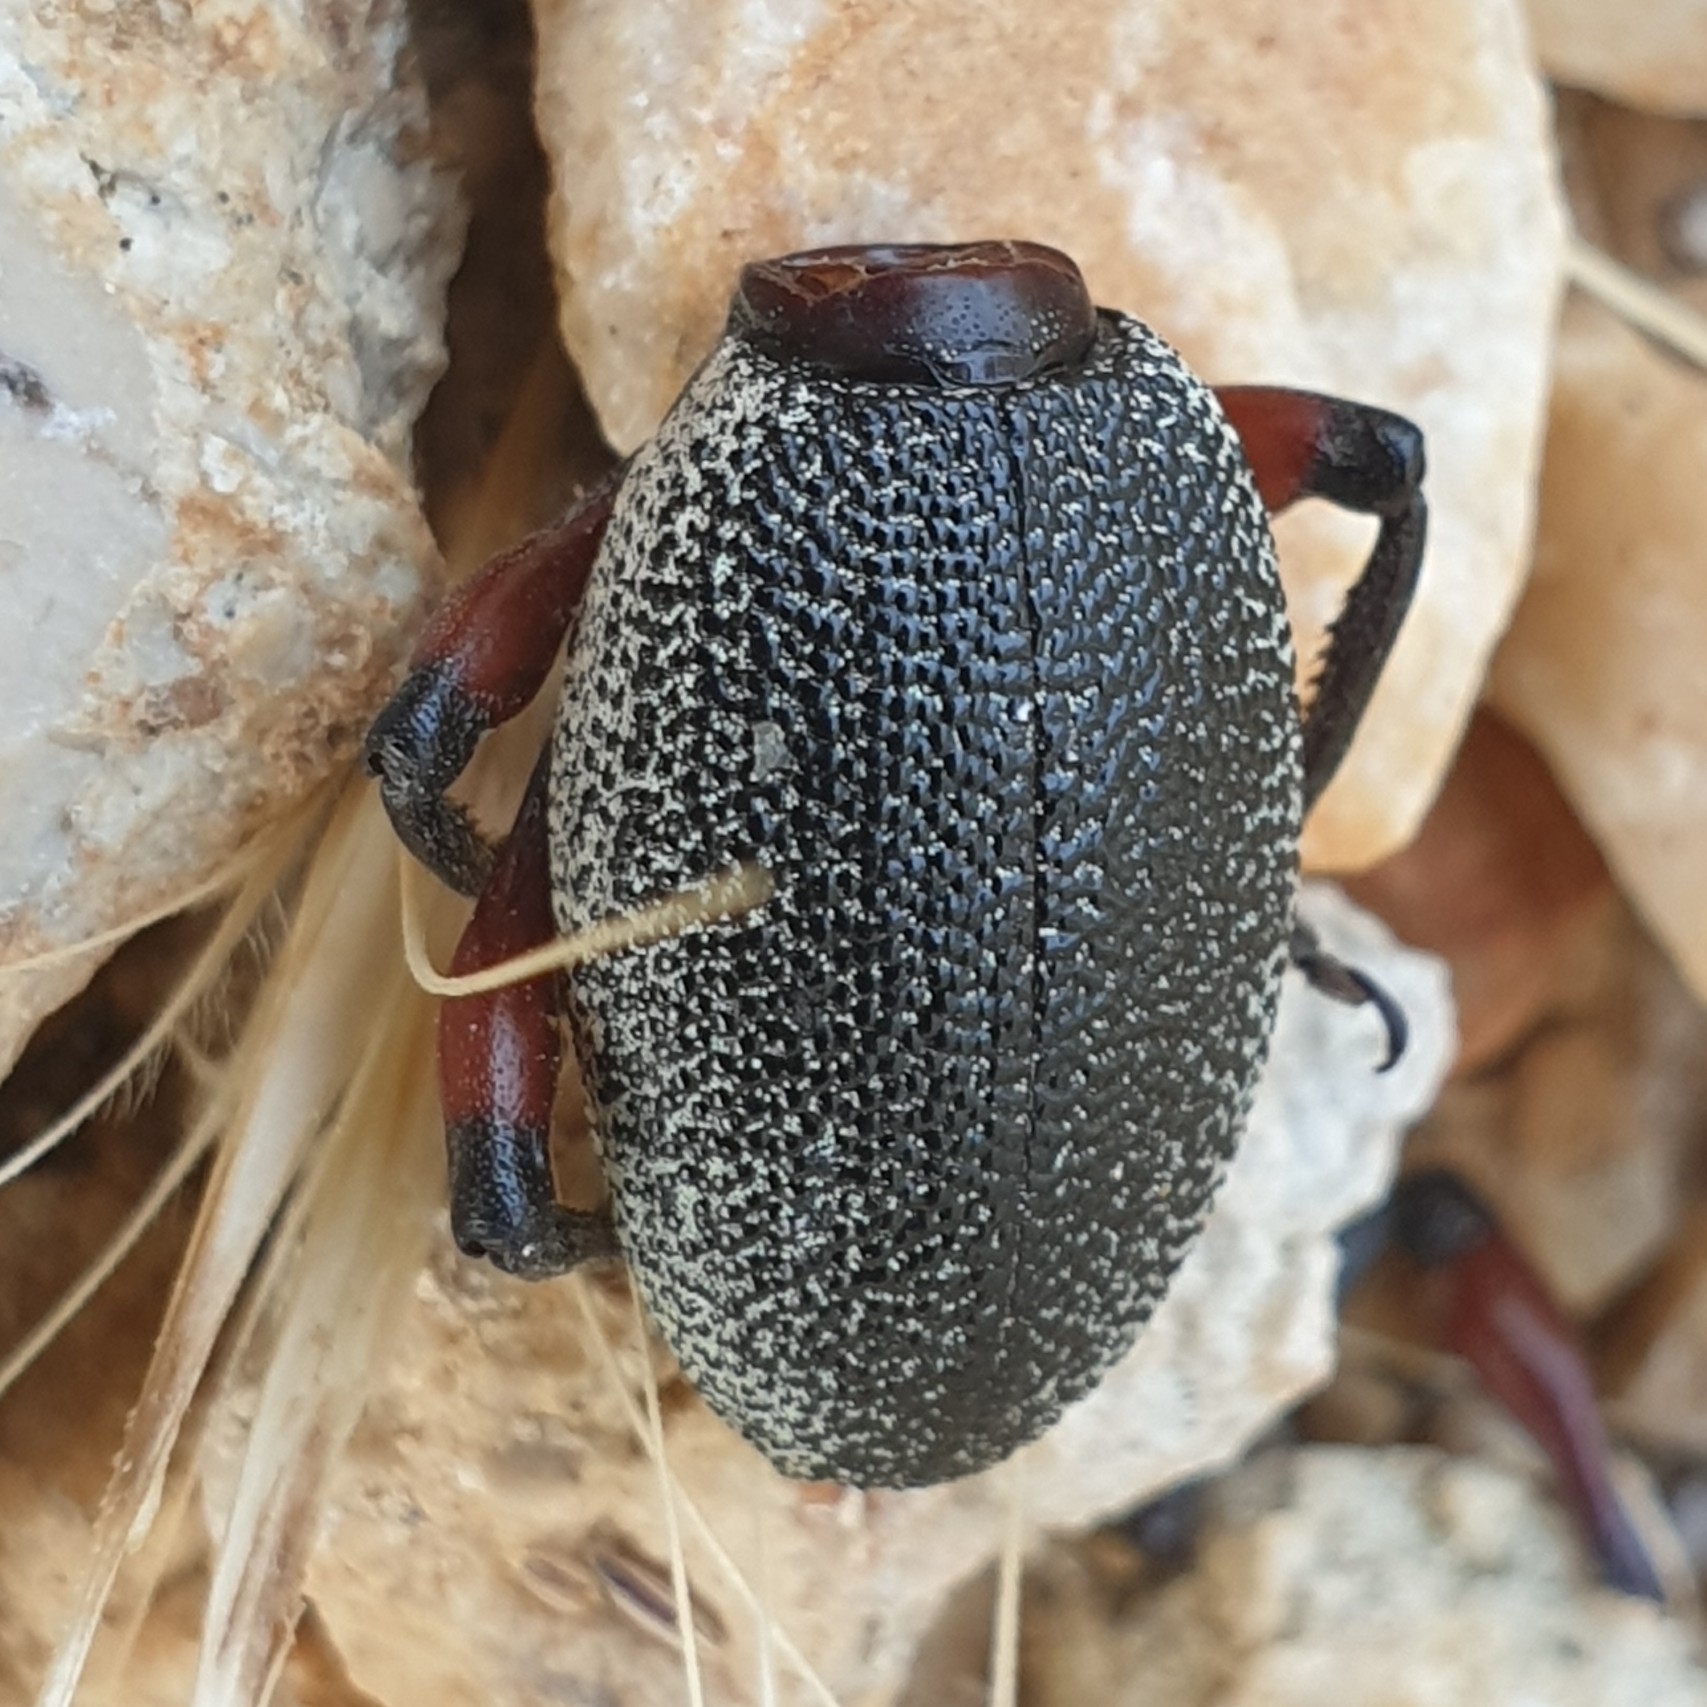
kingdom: Animalia
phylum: Arthropoda
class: Insecta
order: Coleoptera
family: Curculionidae
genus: Otiorhynchus
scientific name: Otiorhynchus cardiniger
